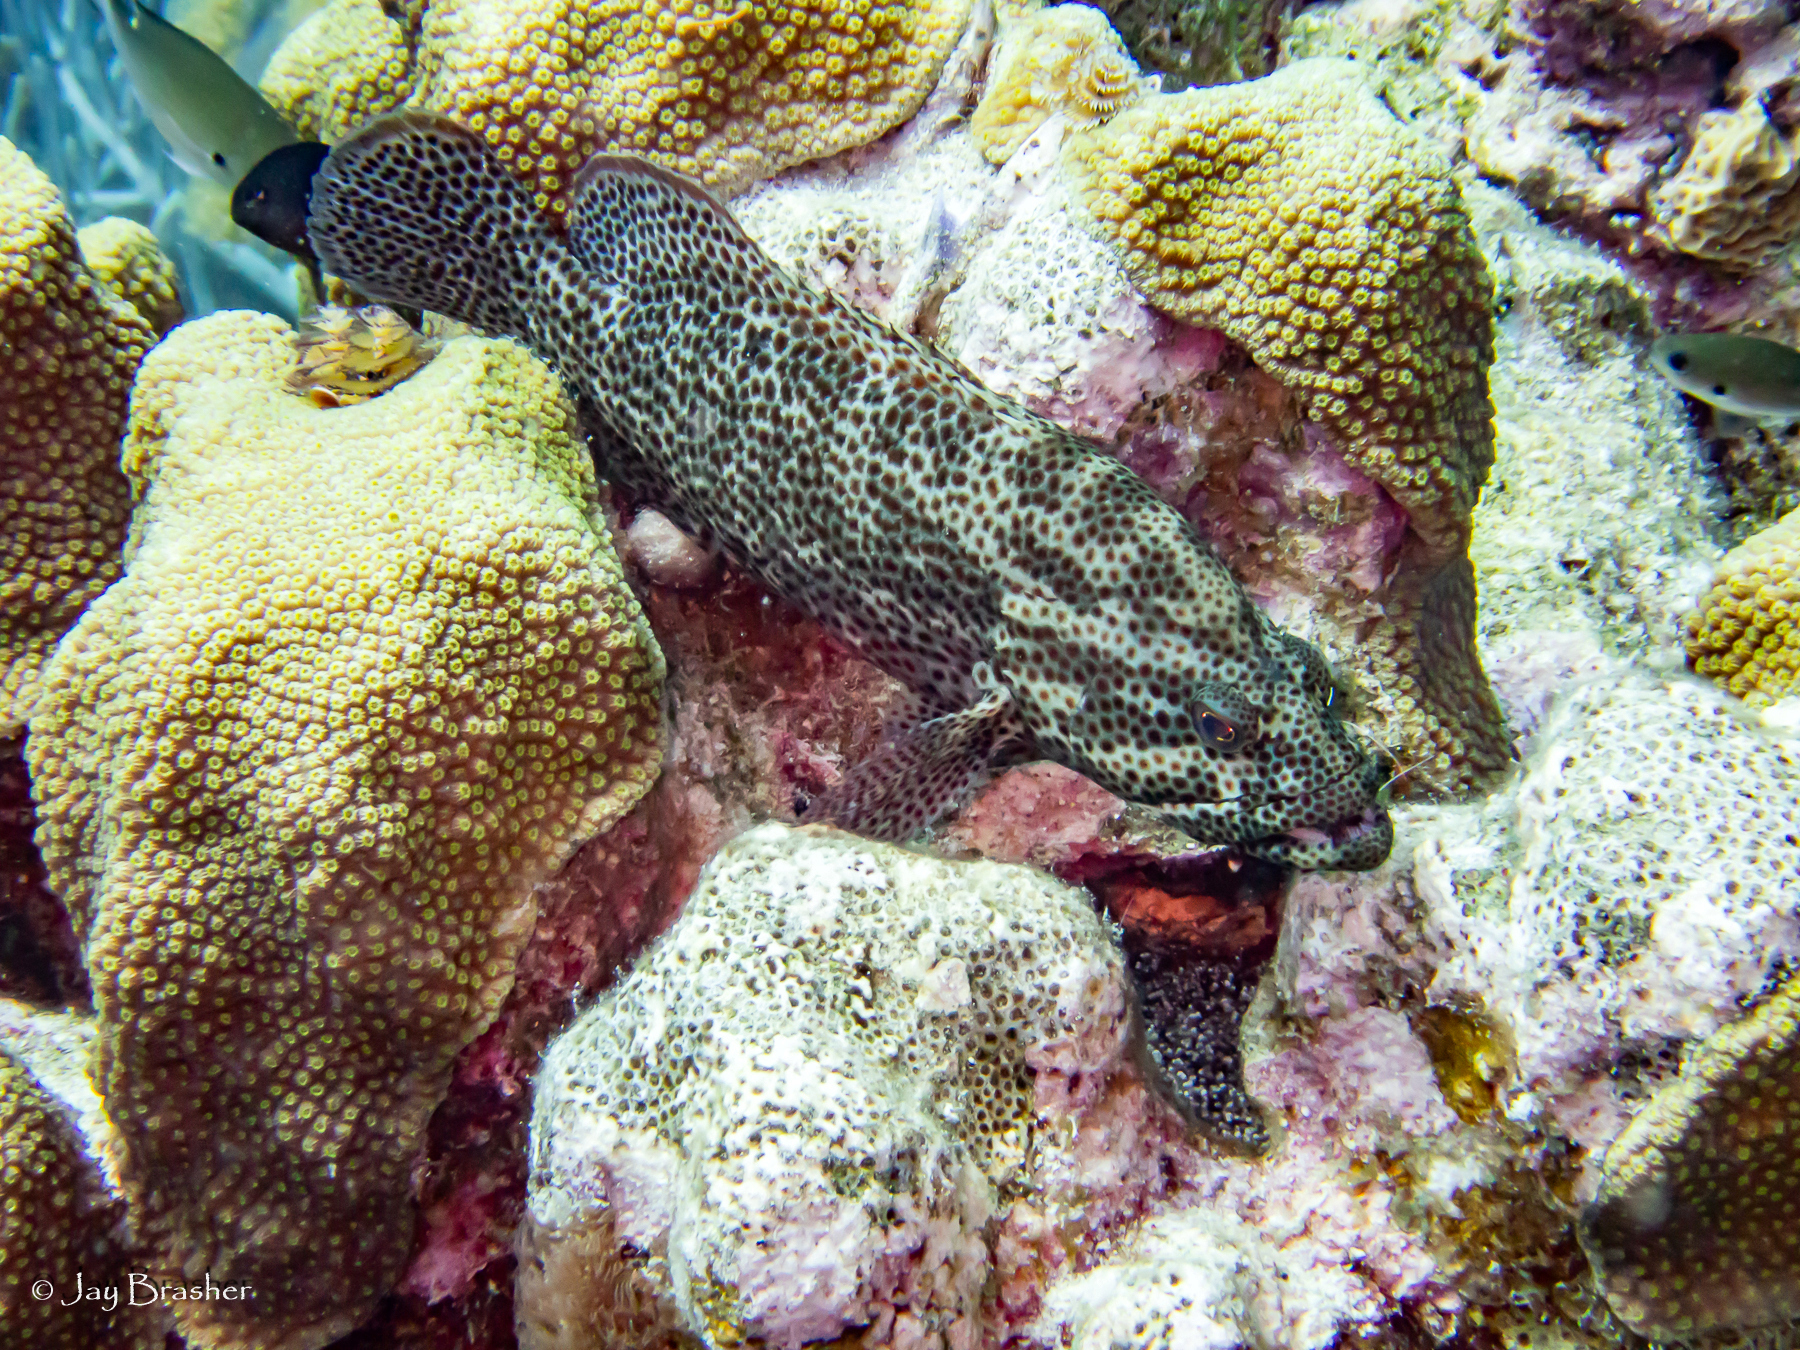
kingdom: Animalia
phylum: Chordata
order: Perciformes
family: Serranidae
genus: Cephalopholis
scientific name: Cephalopholis cruentata
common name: Graysby
